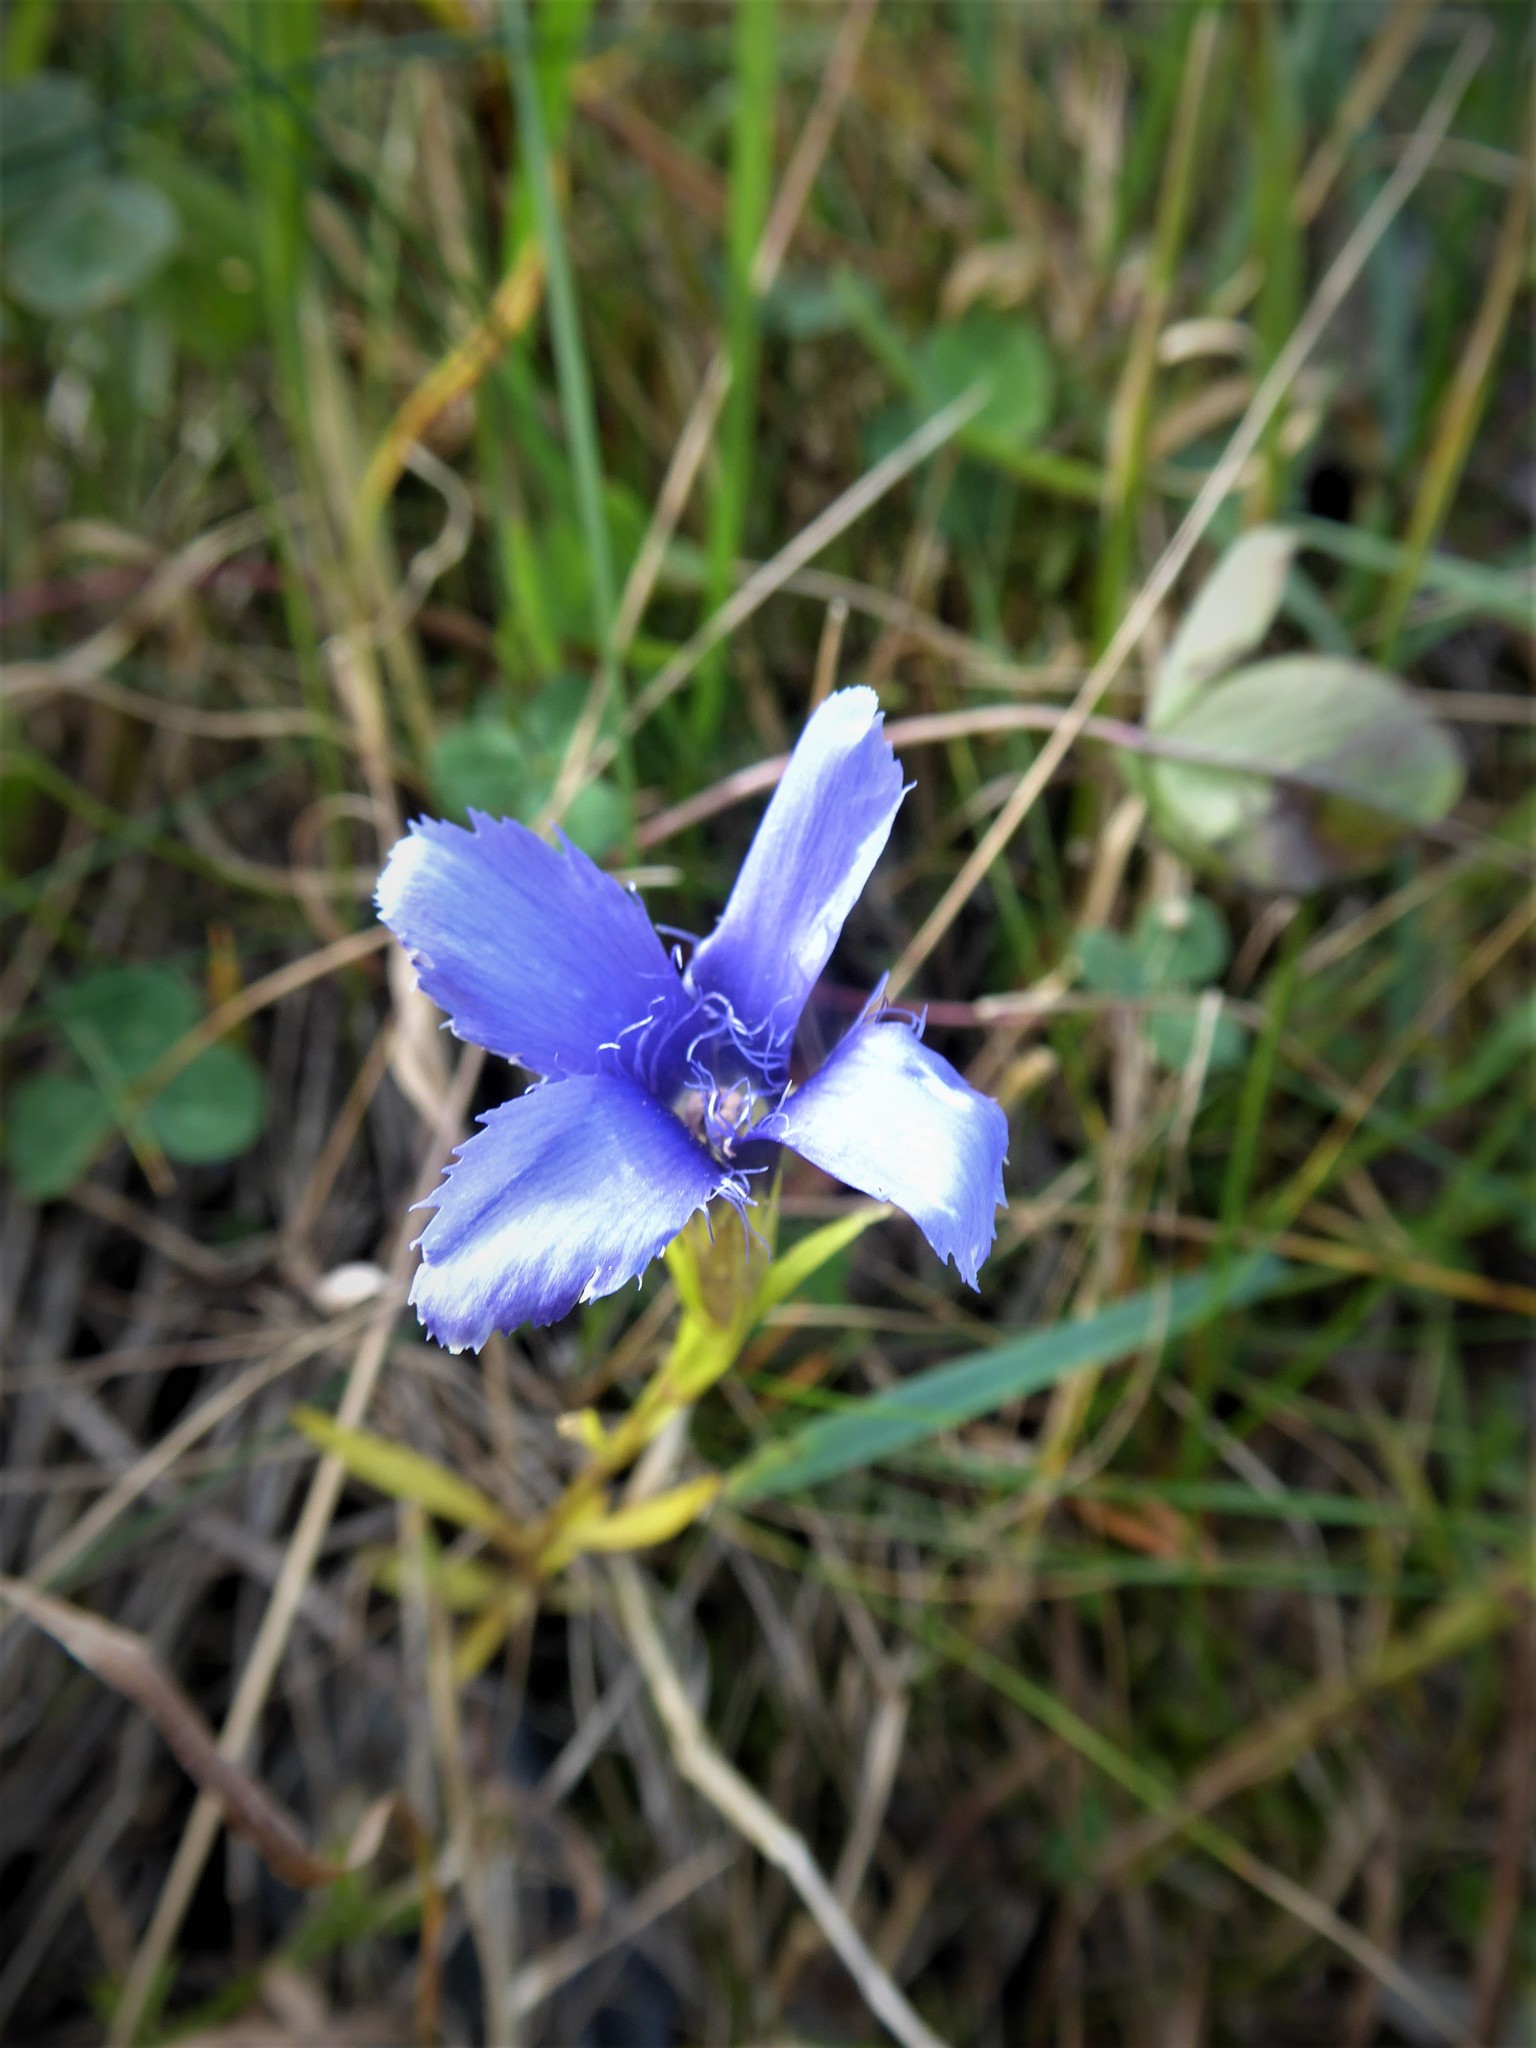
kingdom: Plantae
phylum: Tracheophyta
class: Magnoliopsida
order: Gentianales
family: Gentianaceae
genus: Gentianopsis
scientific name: Gentianopsis ciliata
